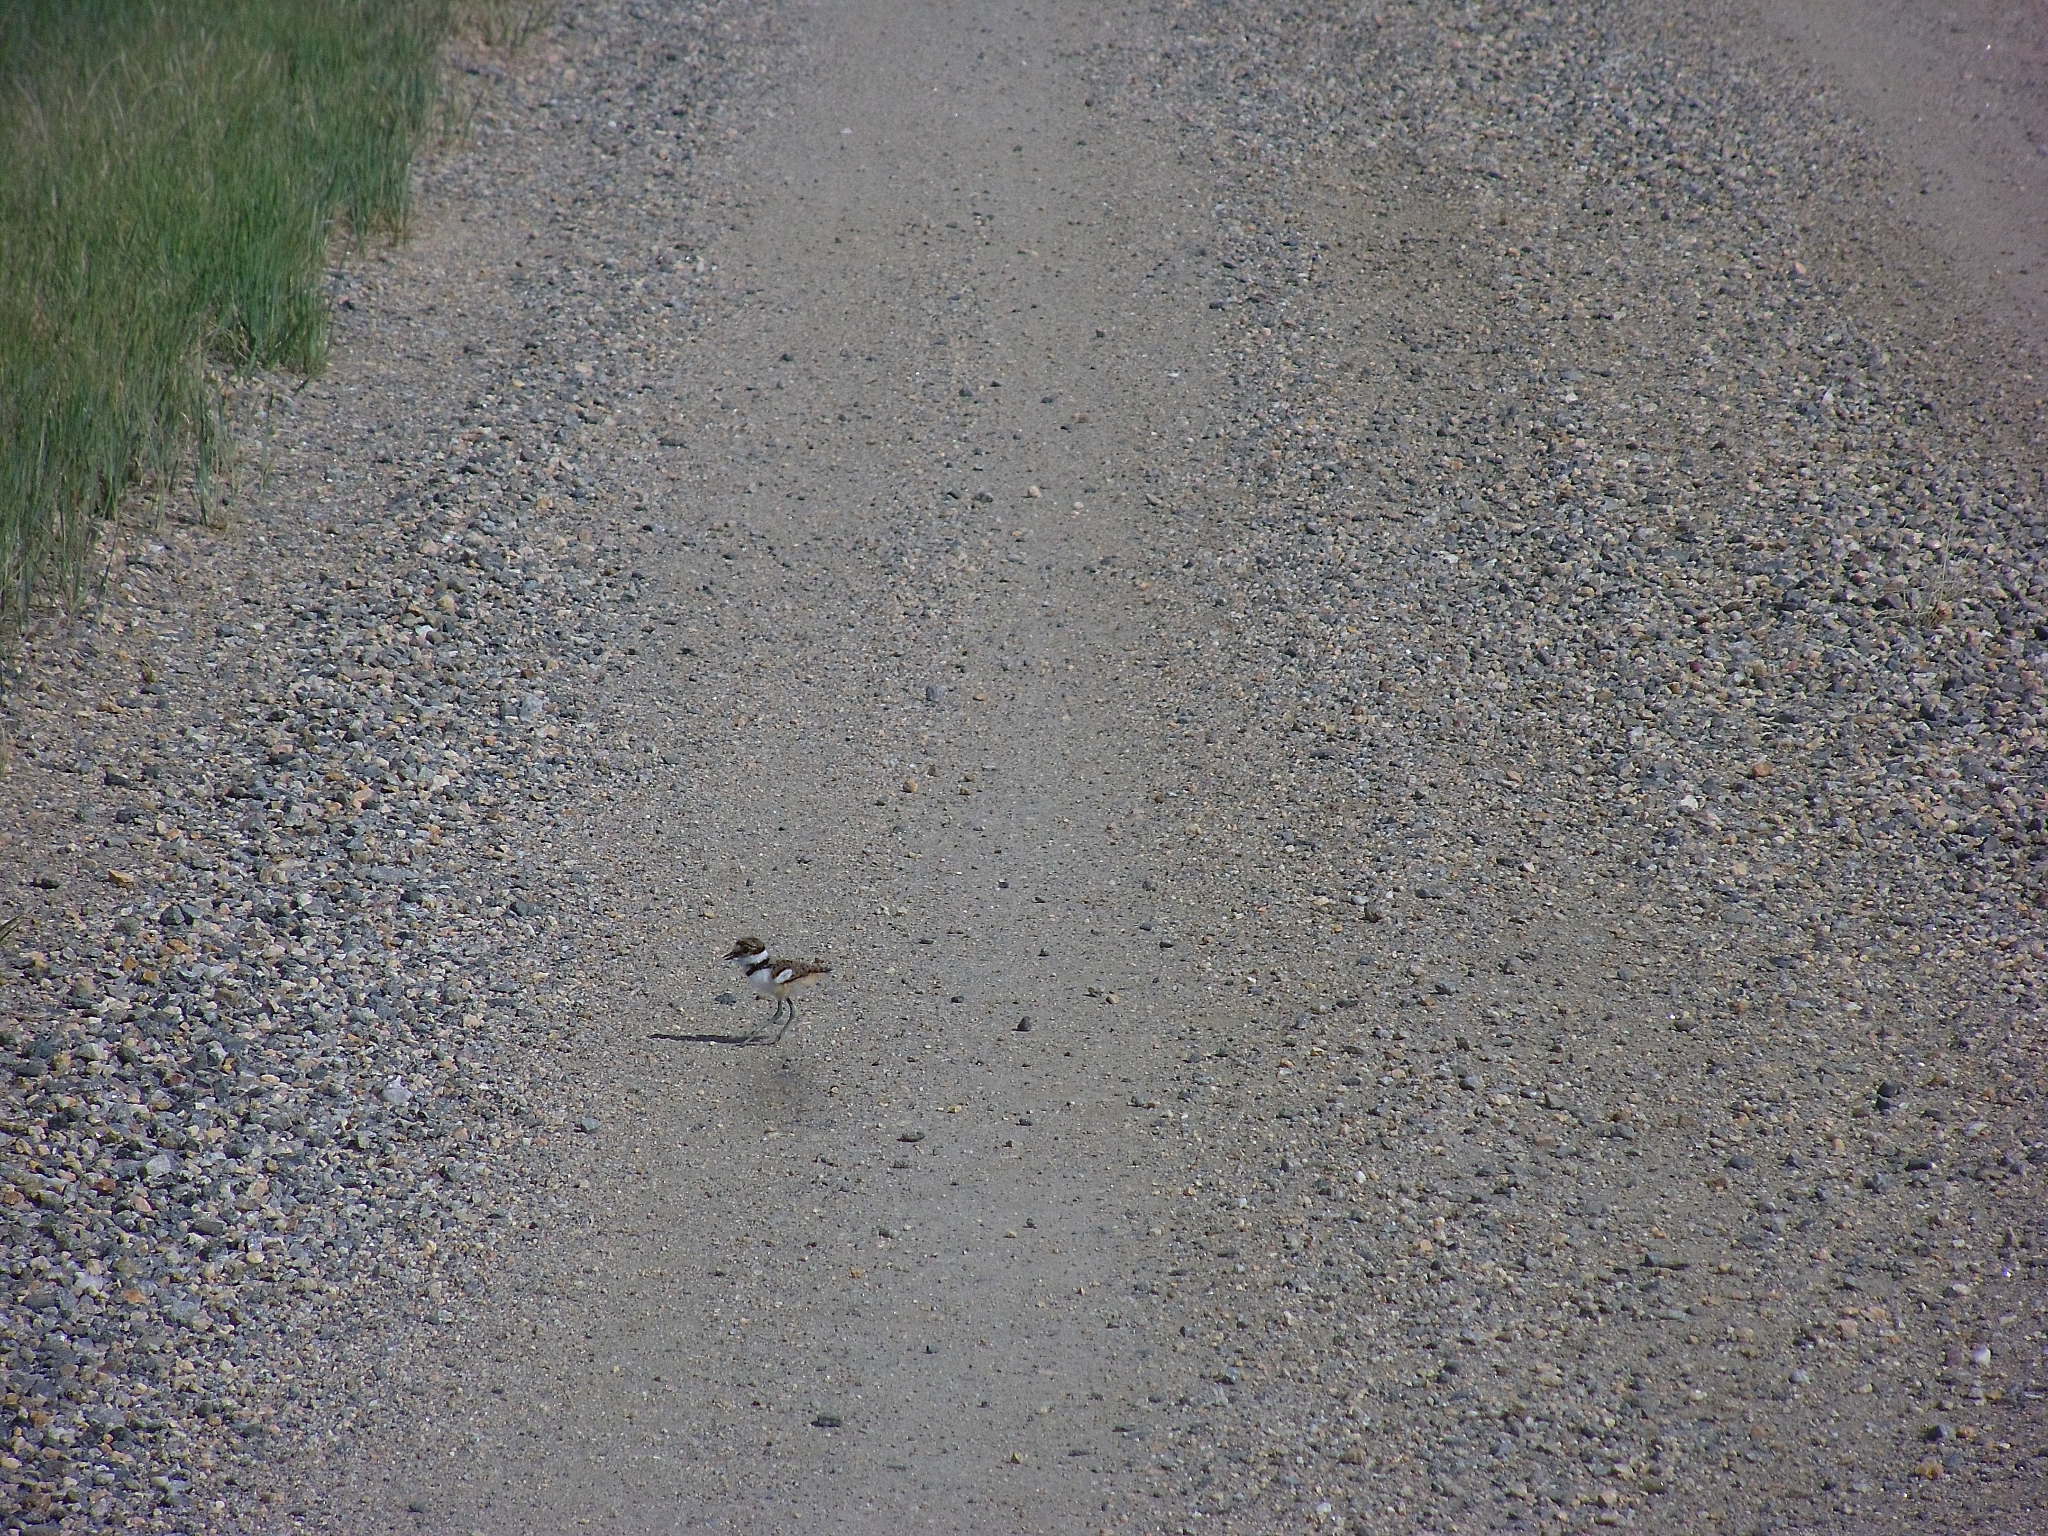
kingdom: Animalia
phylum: Chordata
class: Aves
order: Charadriiformes
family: Charadriidae
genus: Charadrius
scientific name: Charadrius vociferus
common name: Killdeer
